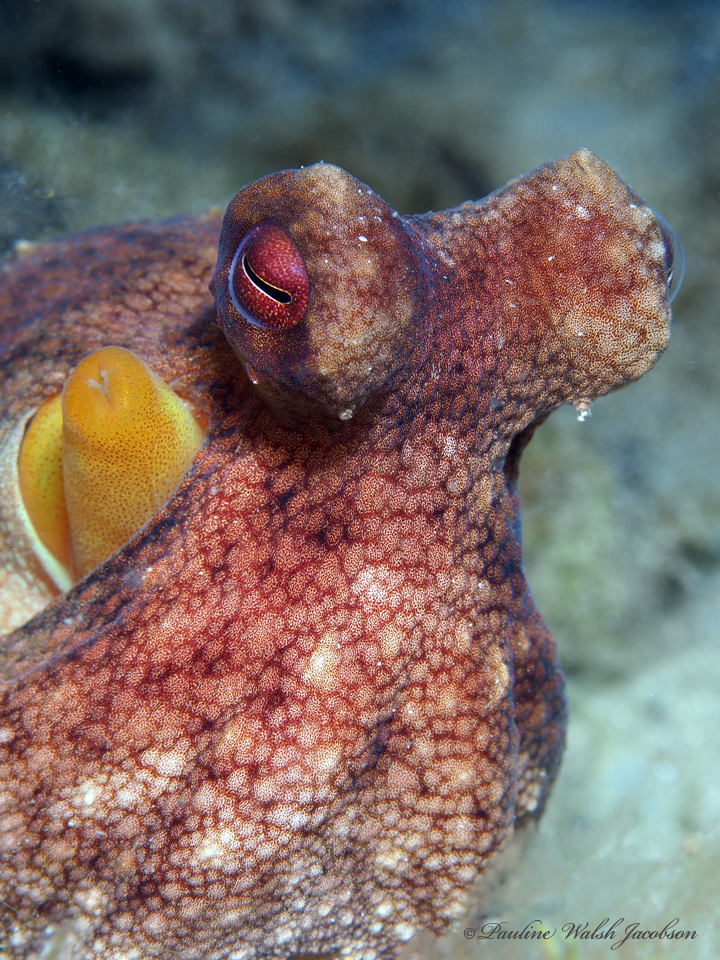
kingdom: Animalia
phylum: Mollusca
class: Cephalopoda
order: Octopoda
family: Octopodidae
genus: Octopus
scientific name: Octopus americanus
